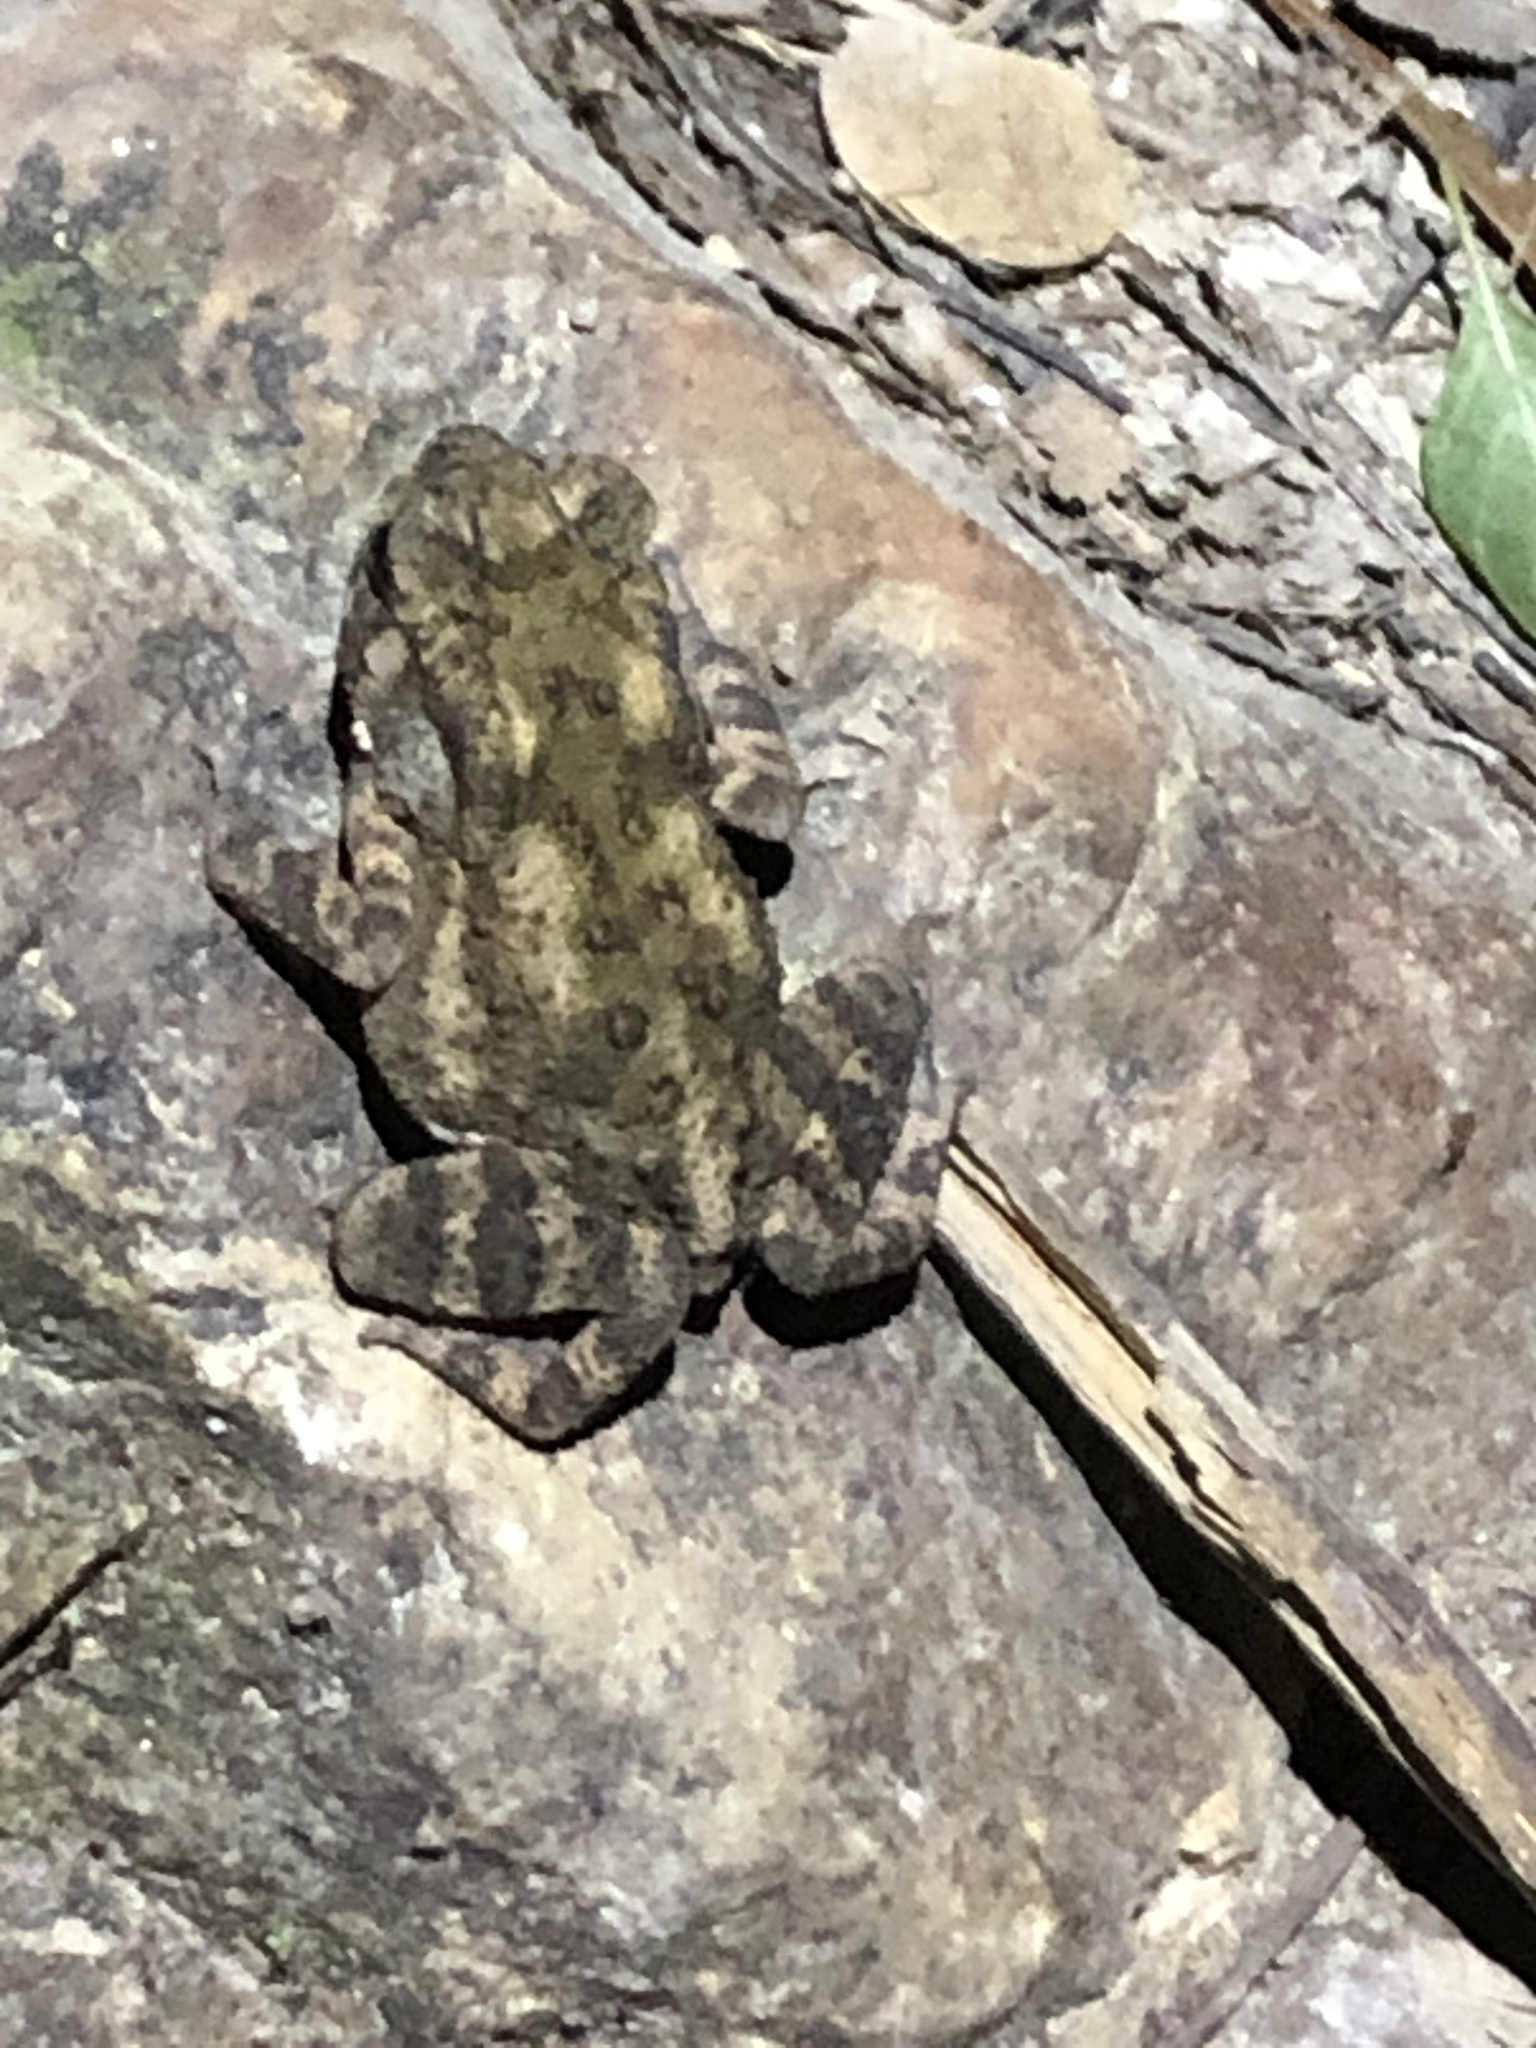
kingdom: Animalia
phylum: Chordata
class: Amphibia
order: Anura
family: Bufonidae
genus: Duttaphrynus
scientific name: Duttaphrynus melanostictus
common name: Common sunda toad
